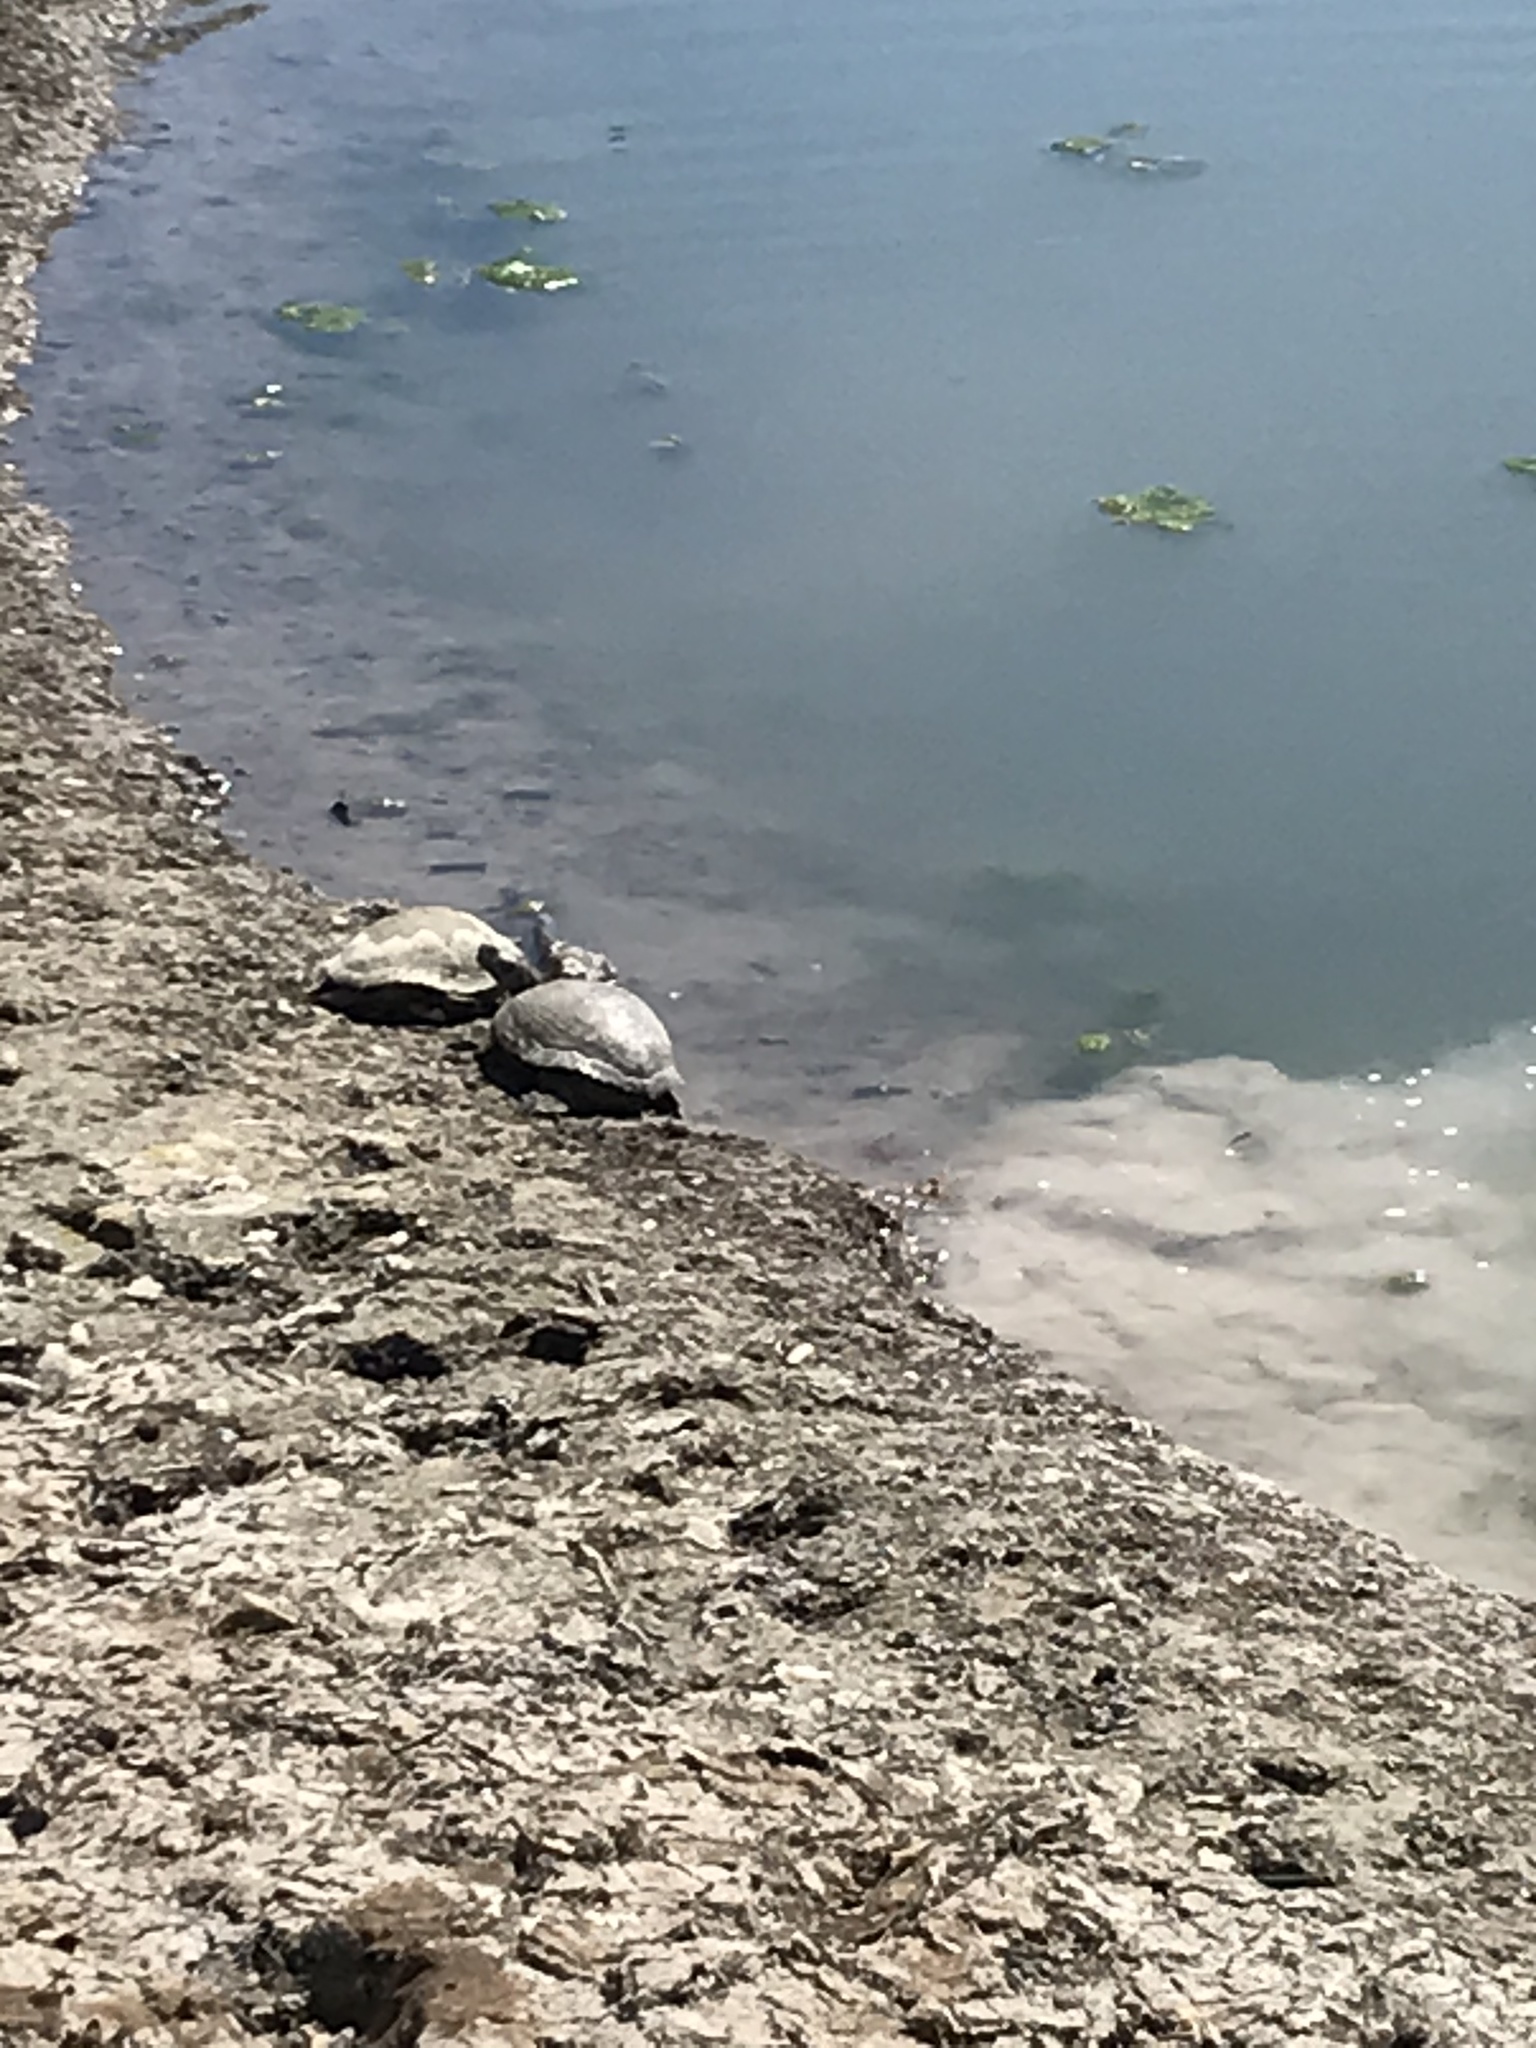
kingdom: Animalia
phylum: Chordata
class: Testudines
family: Emydidae
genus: Trachemys
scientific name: Trachemys scripta
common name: Slider
